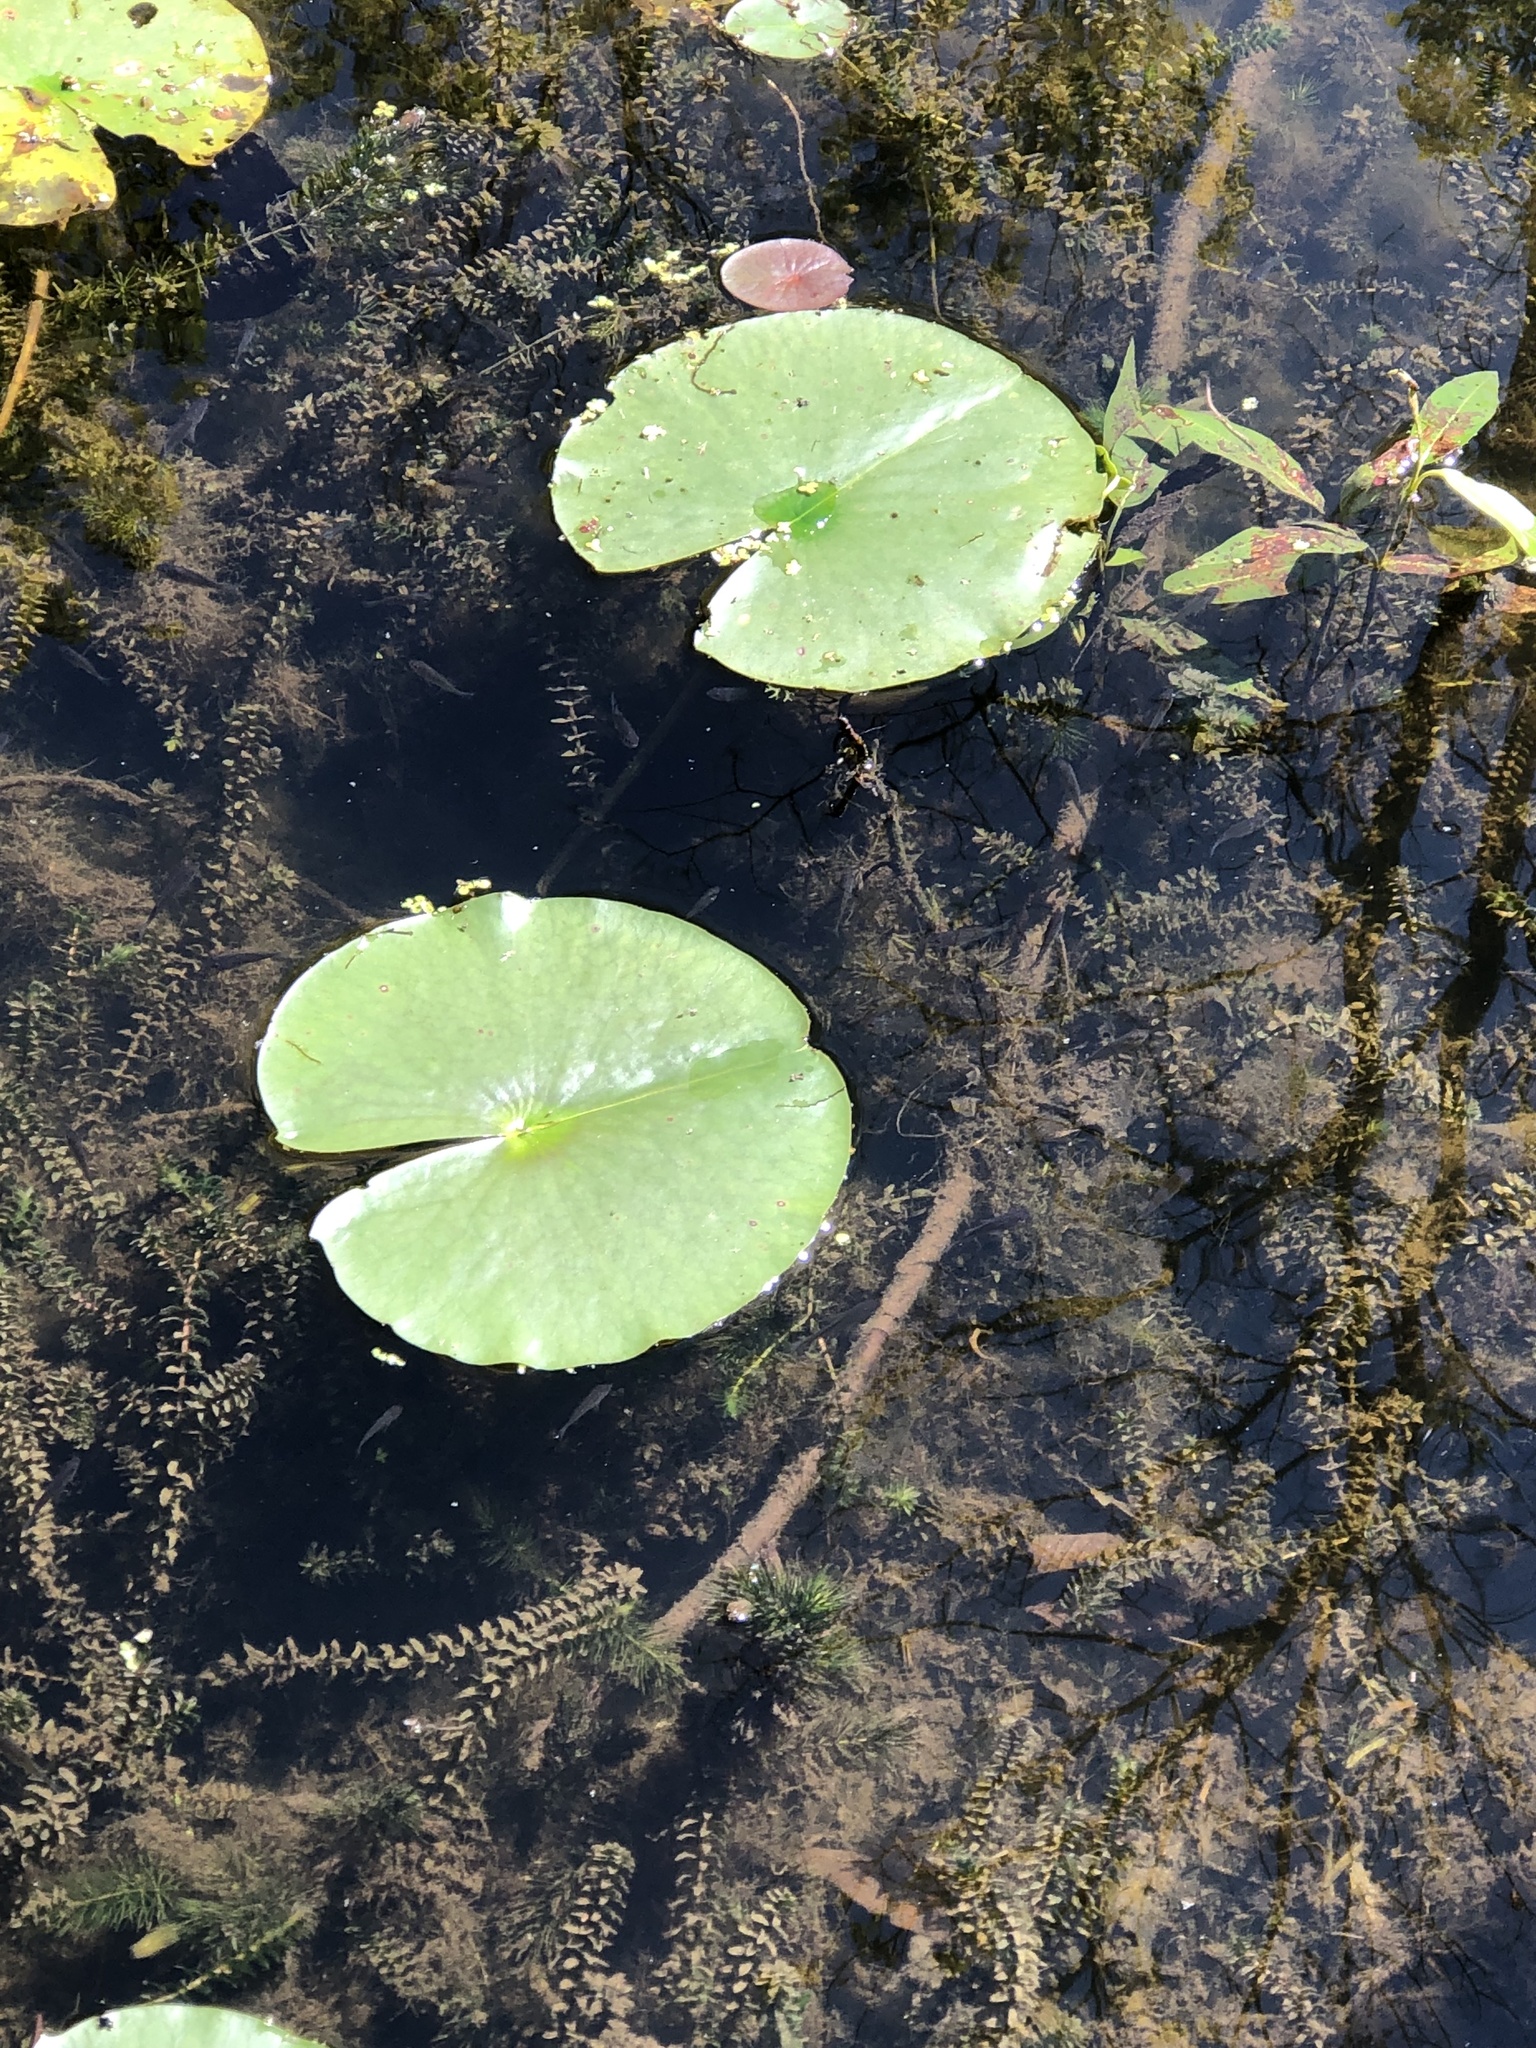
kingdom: Plantae
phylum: Tracheophyta
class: Magnoliopsida
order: Nymphaeales
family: Nymphaeaceae
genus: Nymphaea
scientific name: Nymphaea odorata
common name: Fragrant water-lily
